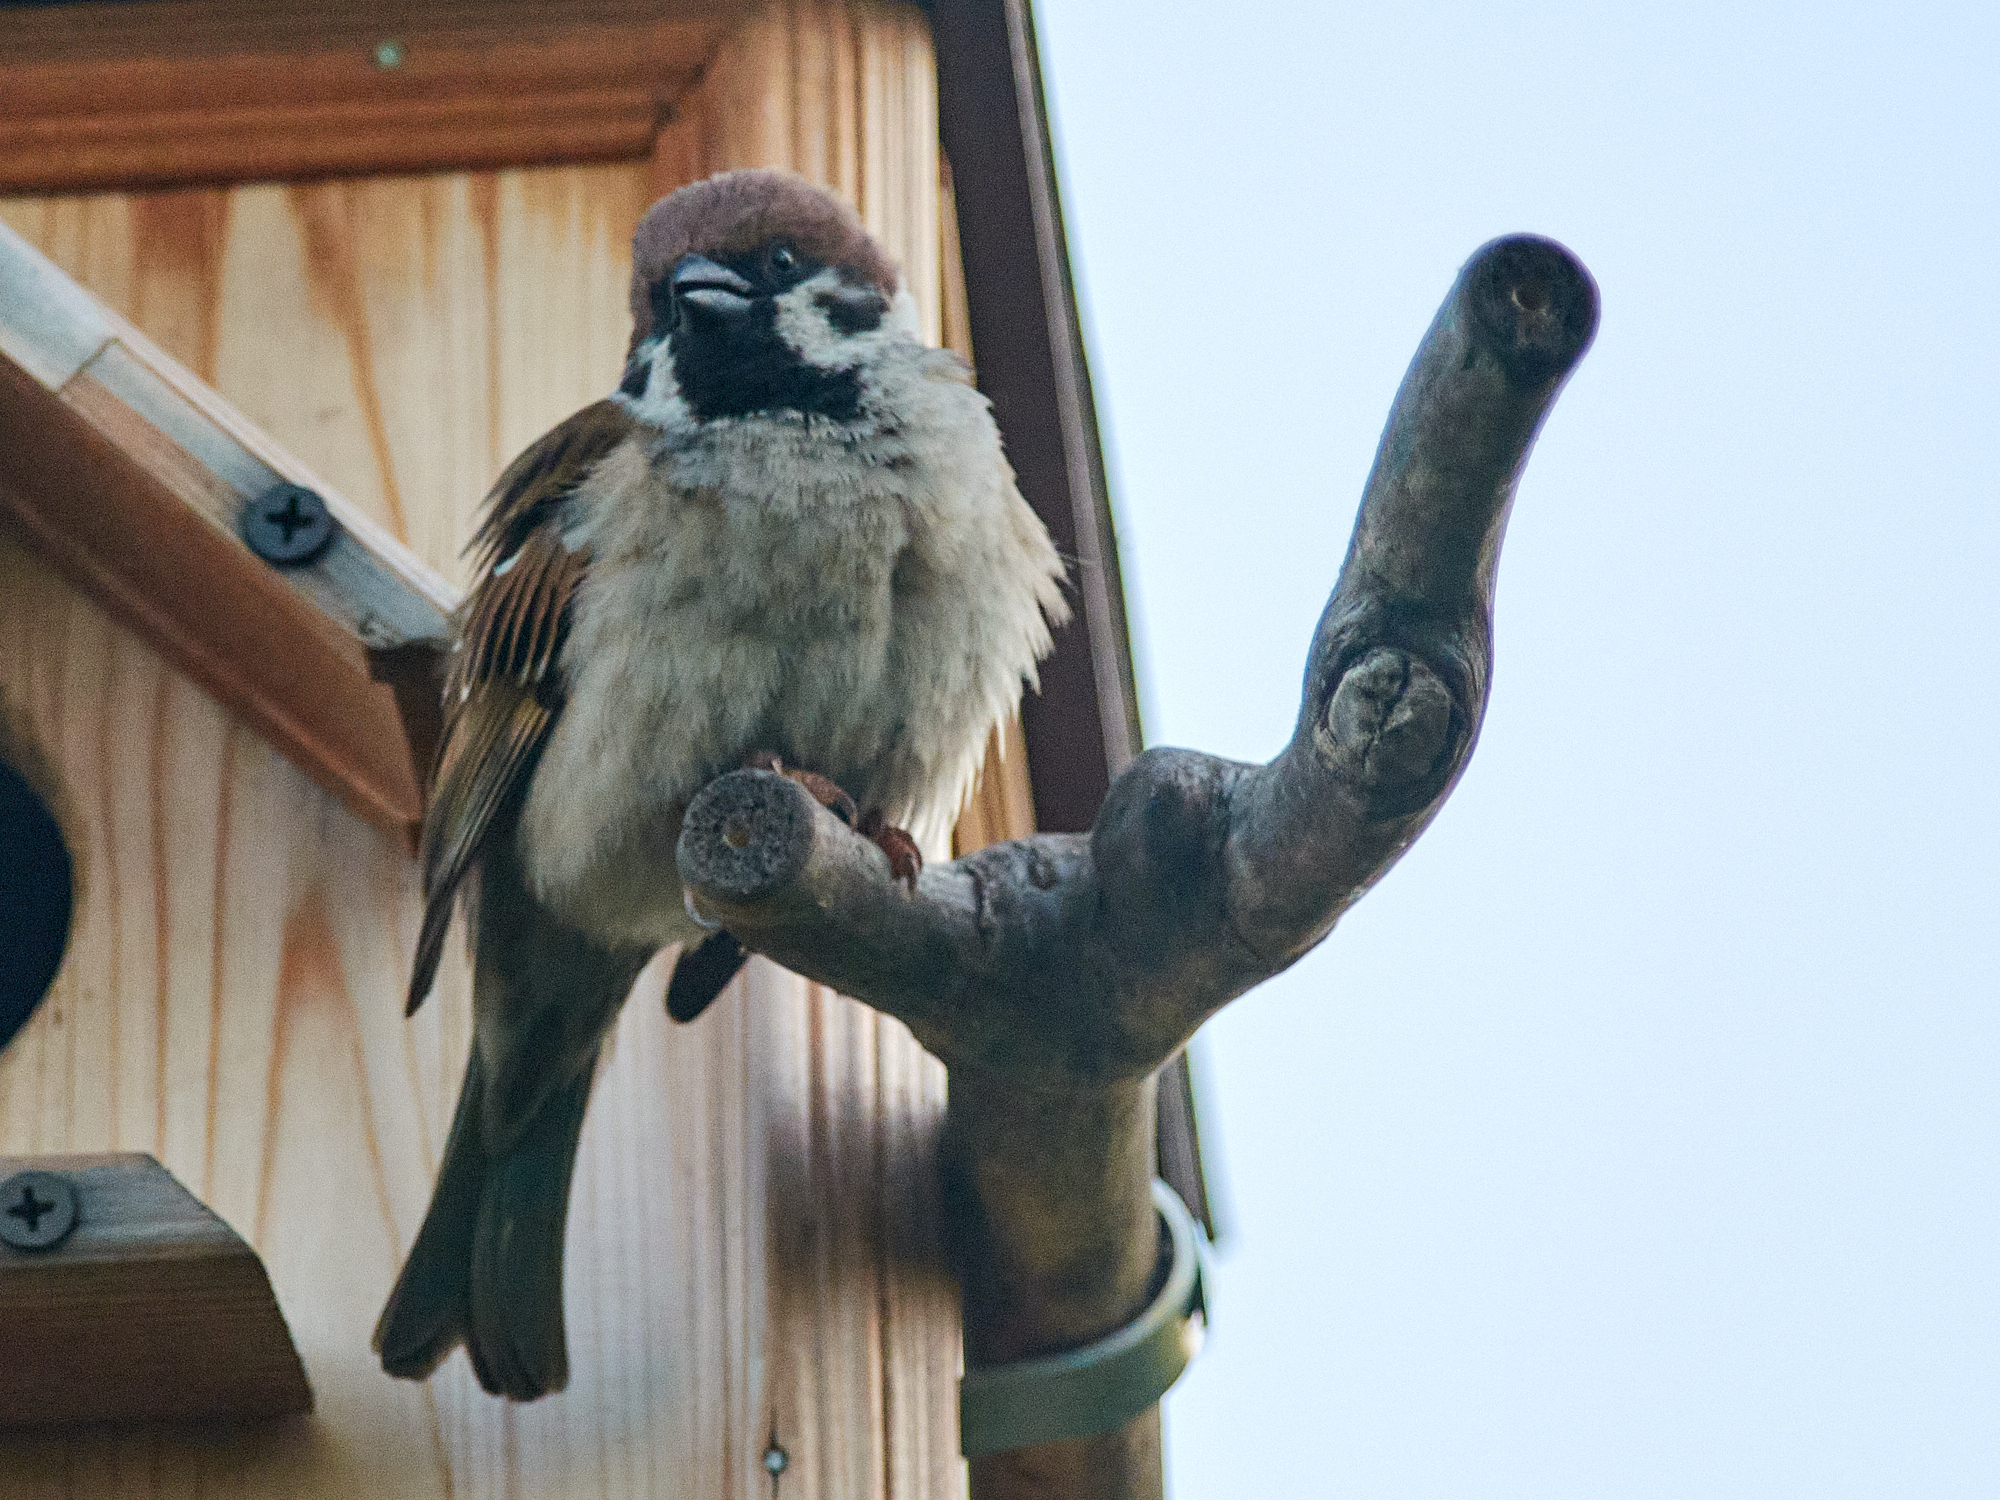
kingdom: Animalia
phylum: Chordata
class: Aves
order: Passeriformes
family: Passeridae
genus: Passer
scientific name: Passer montanus
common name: Eurasian tree sparrow
